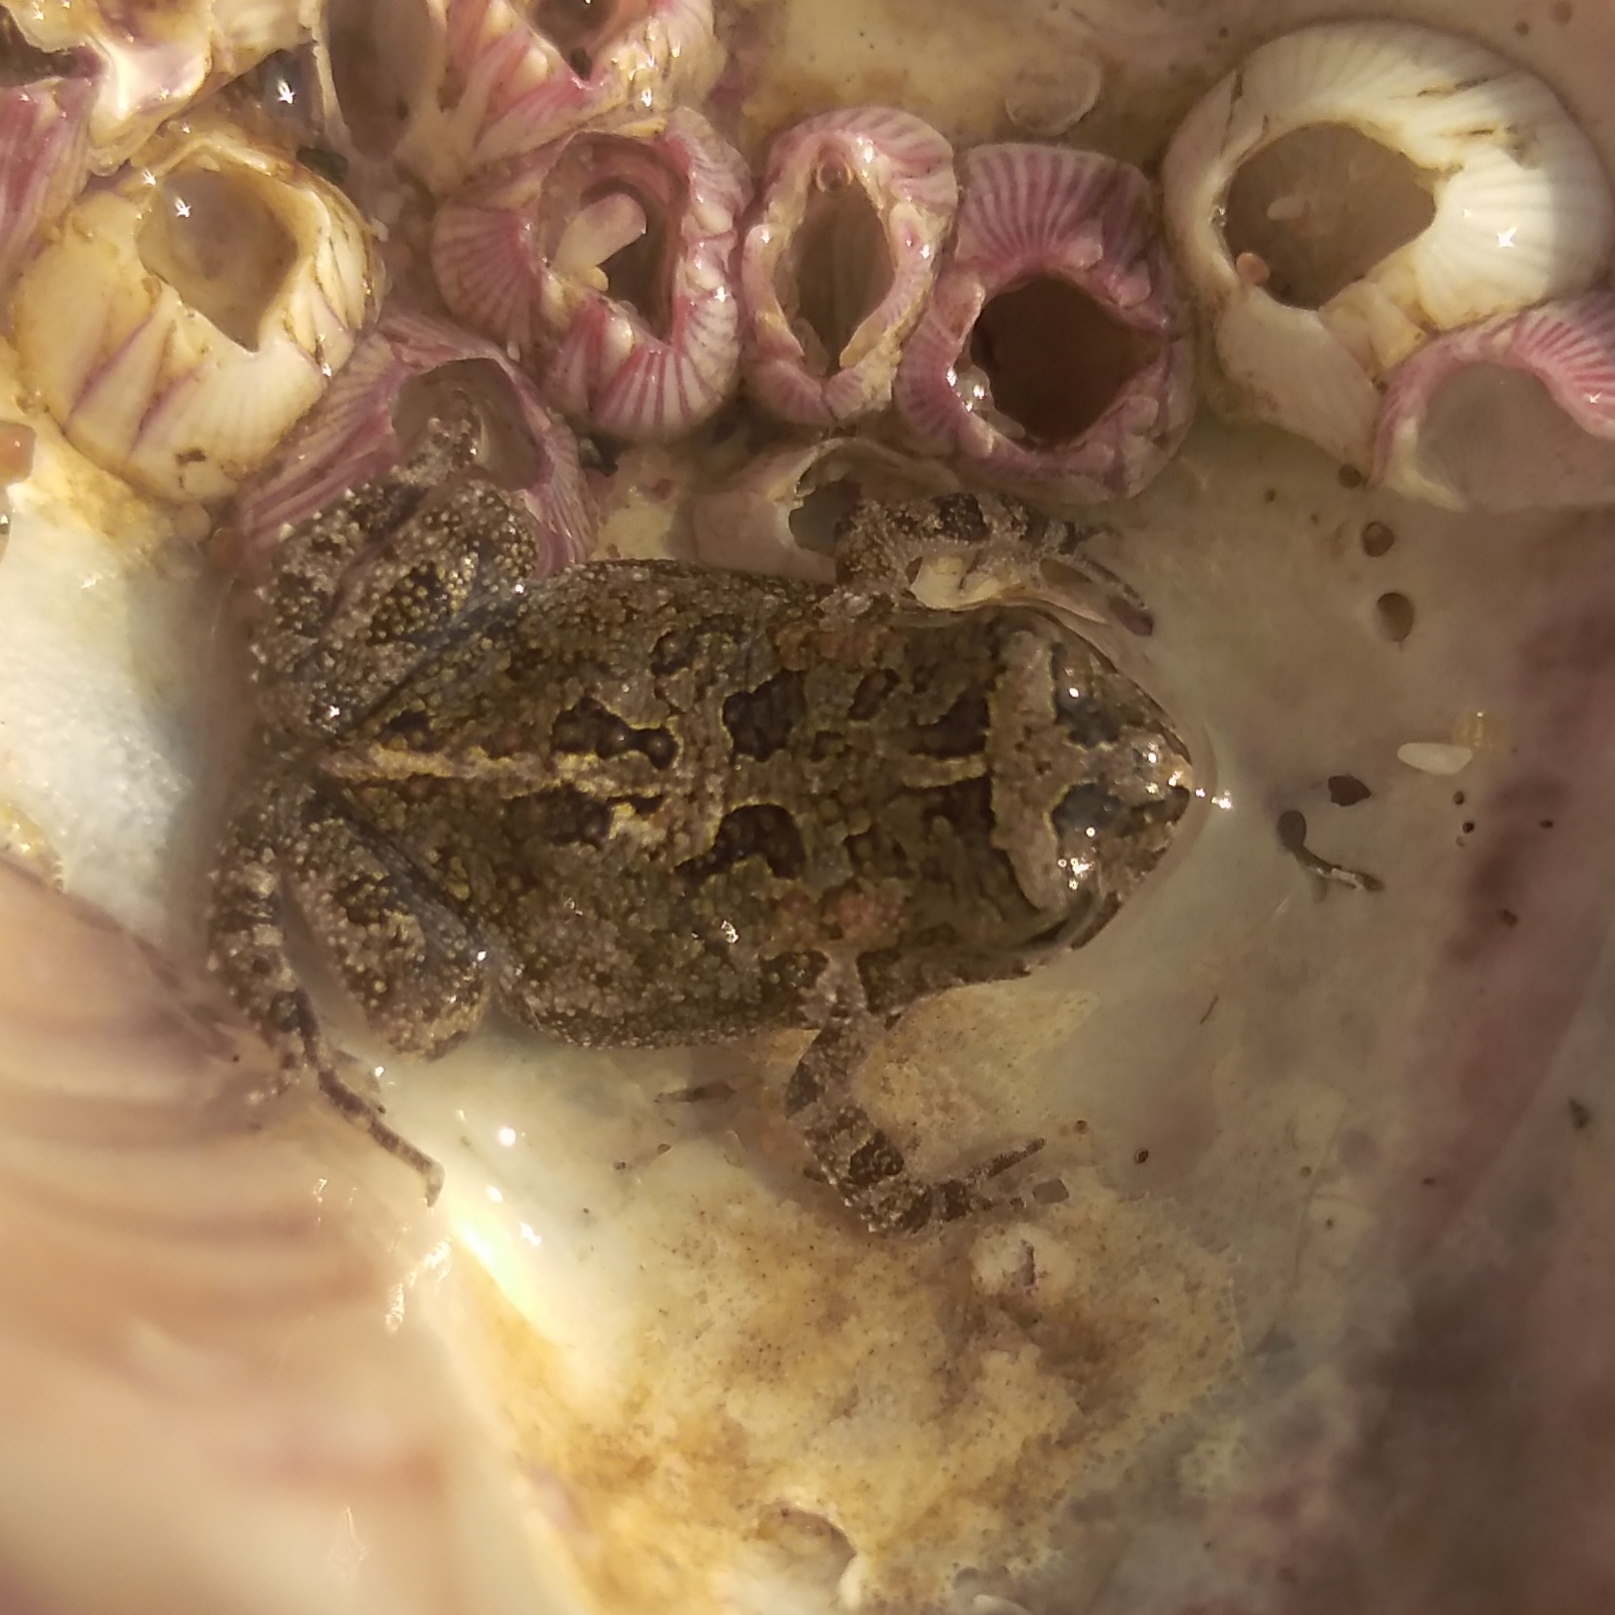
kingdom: Animalia
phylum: Chordata
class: Amphibia
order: Anura
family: Bufonidae
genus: Sclerophrys
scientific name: Sclerophrys gutturalis
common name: African common toad
